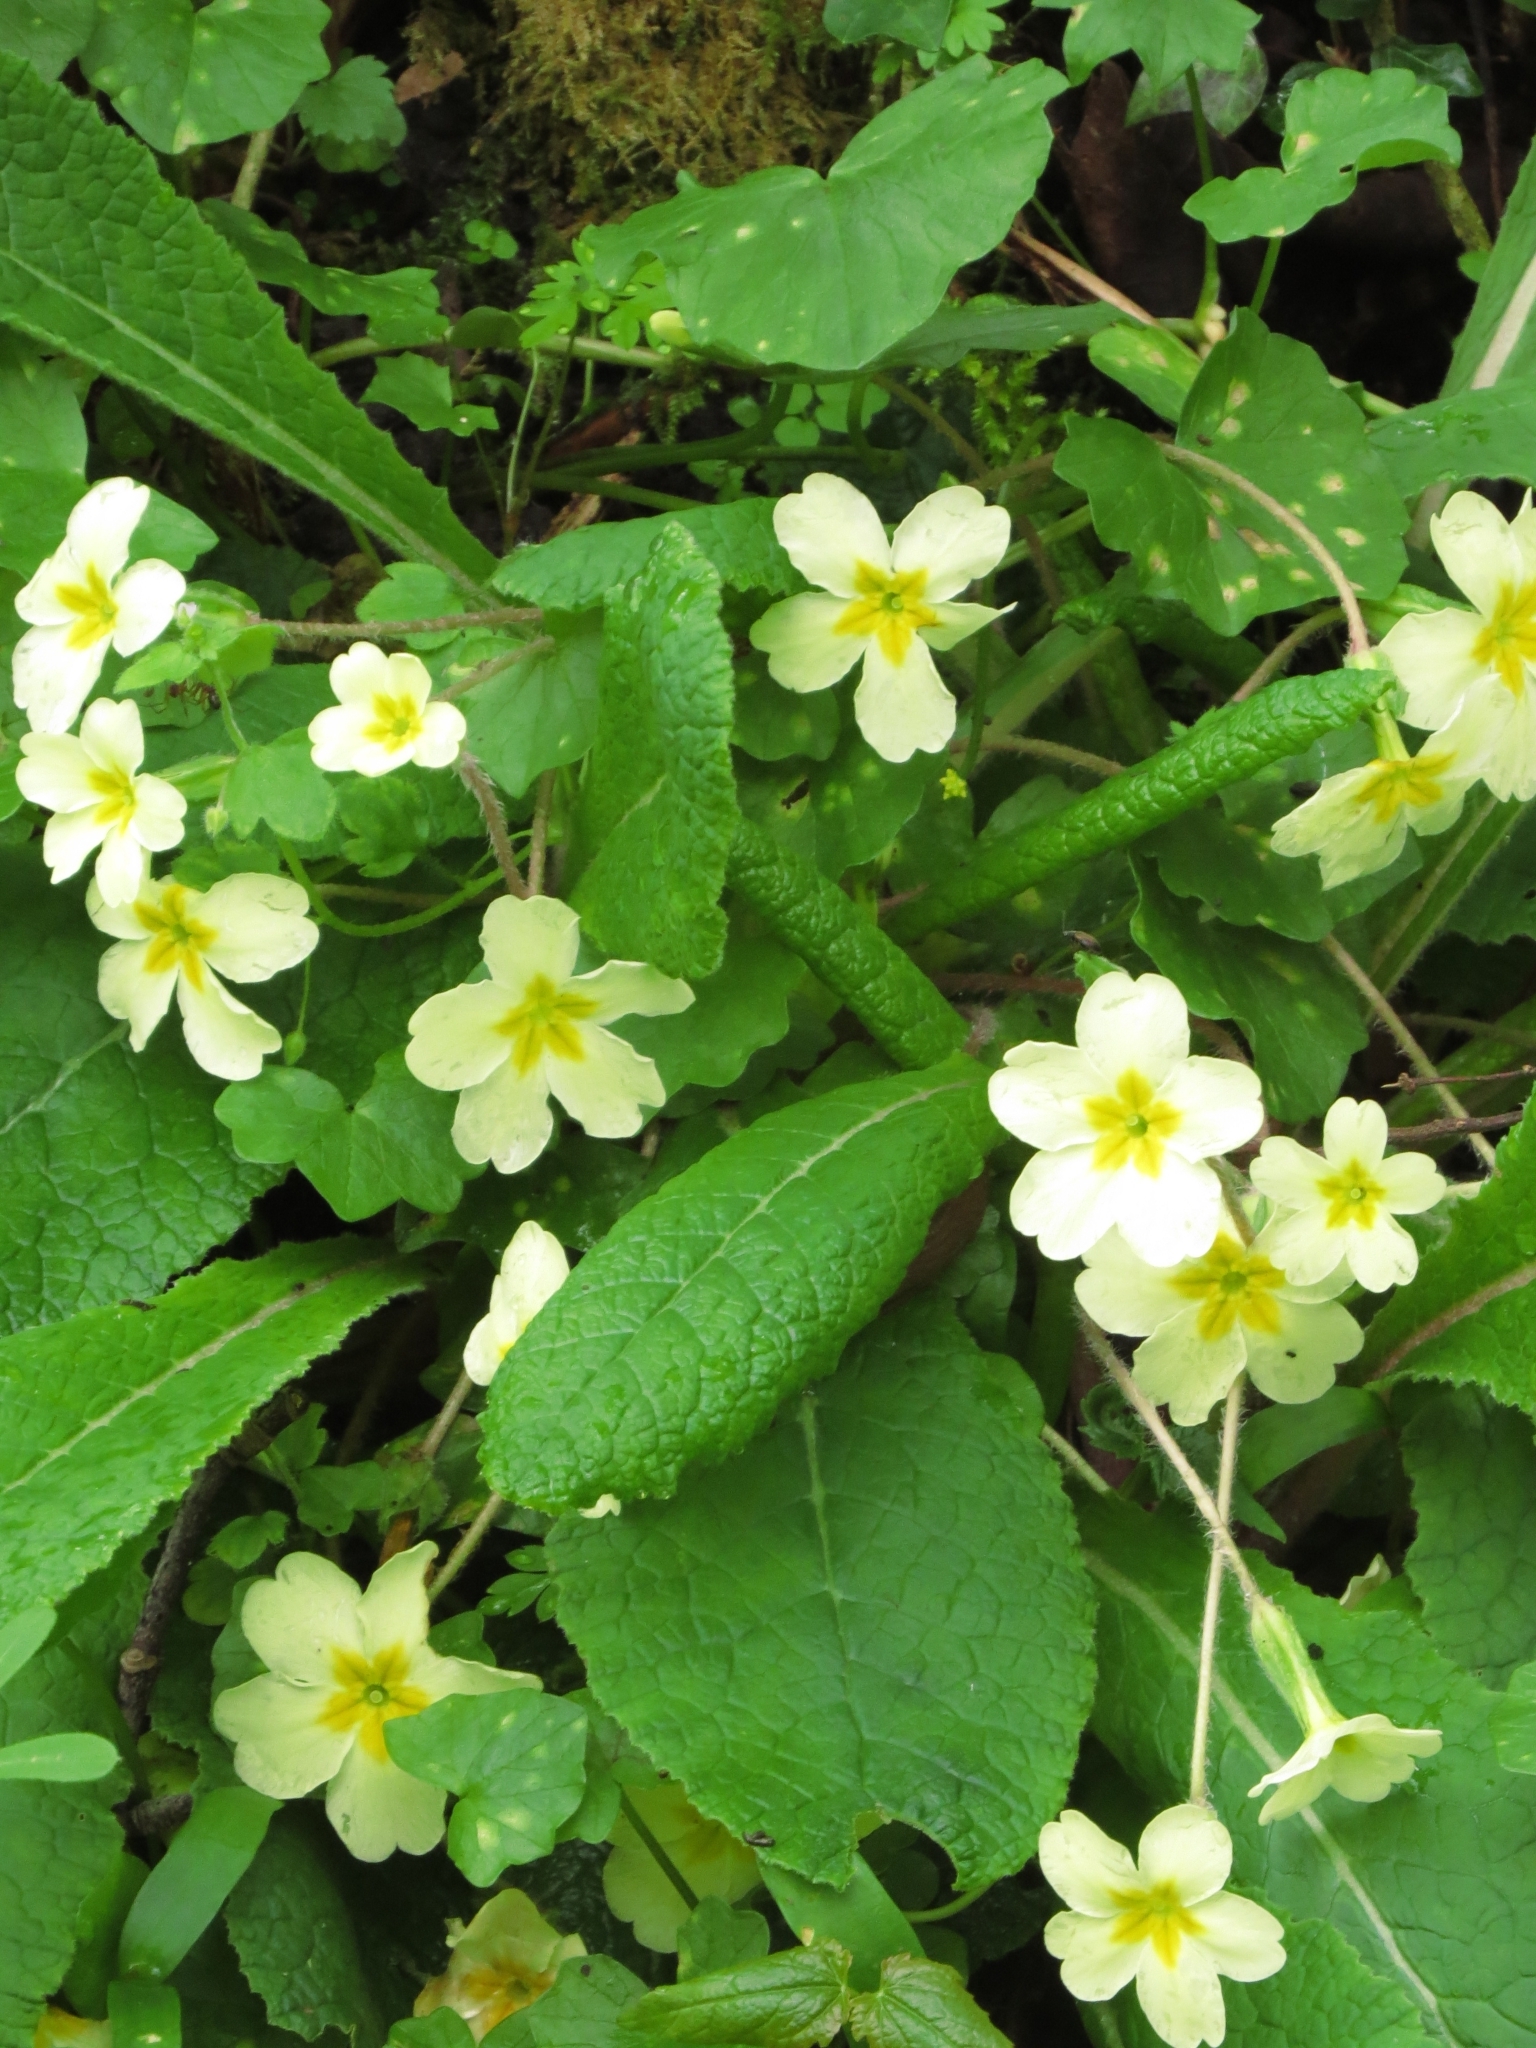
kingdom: Plantae
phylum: Tracheophyta
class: Magnoliopsida
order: Ericales
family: Primulaceae
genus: Primula
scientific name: Primula vulgaris
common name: Primrose
